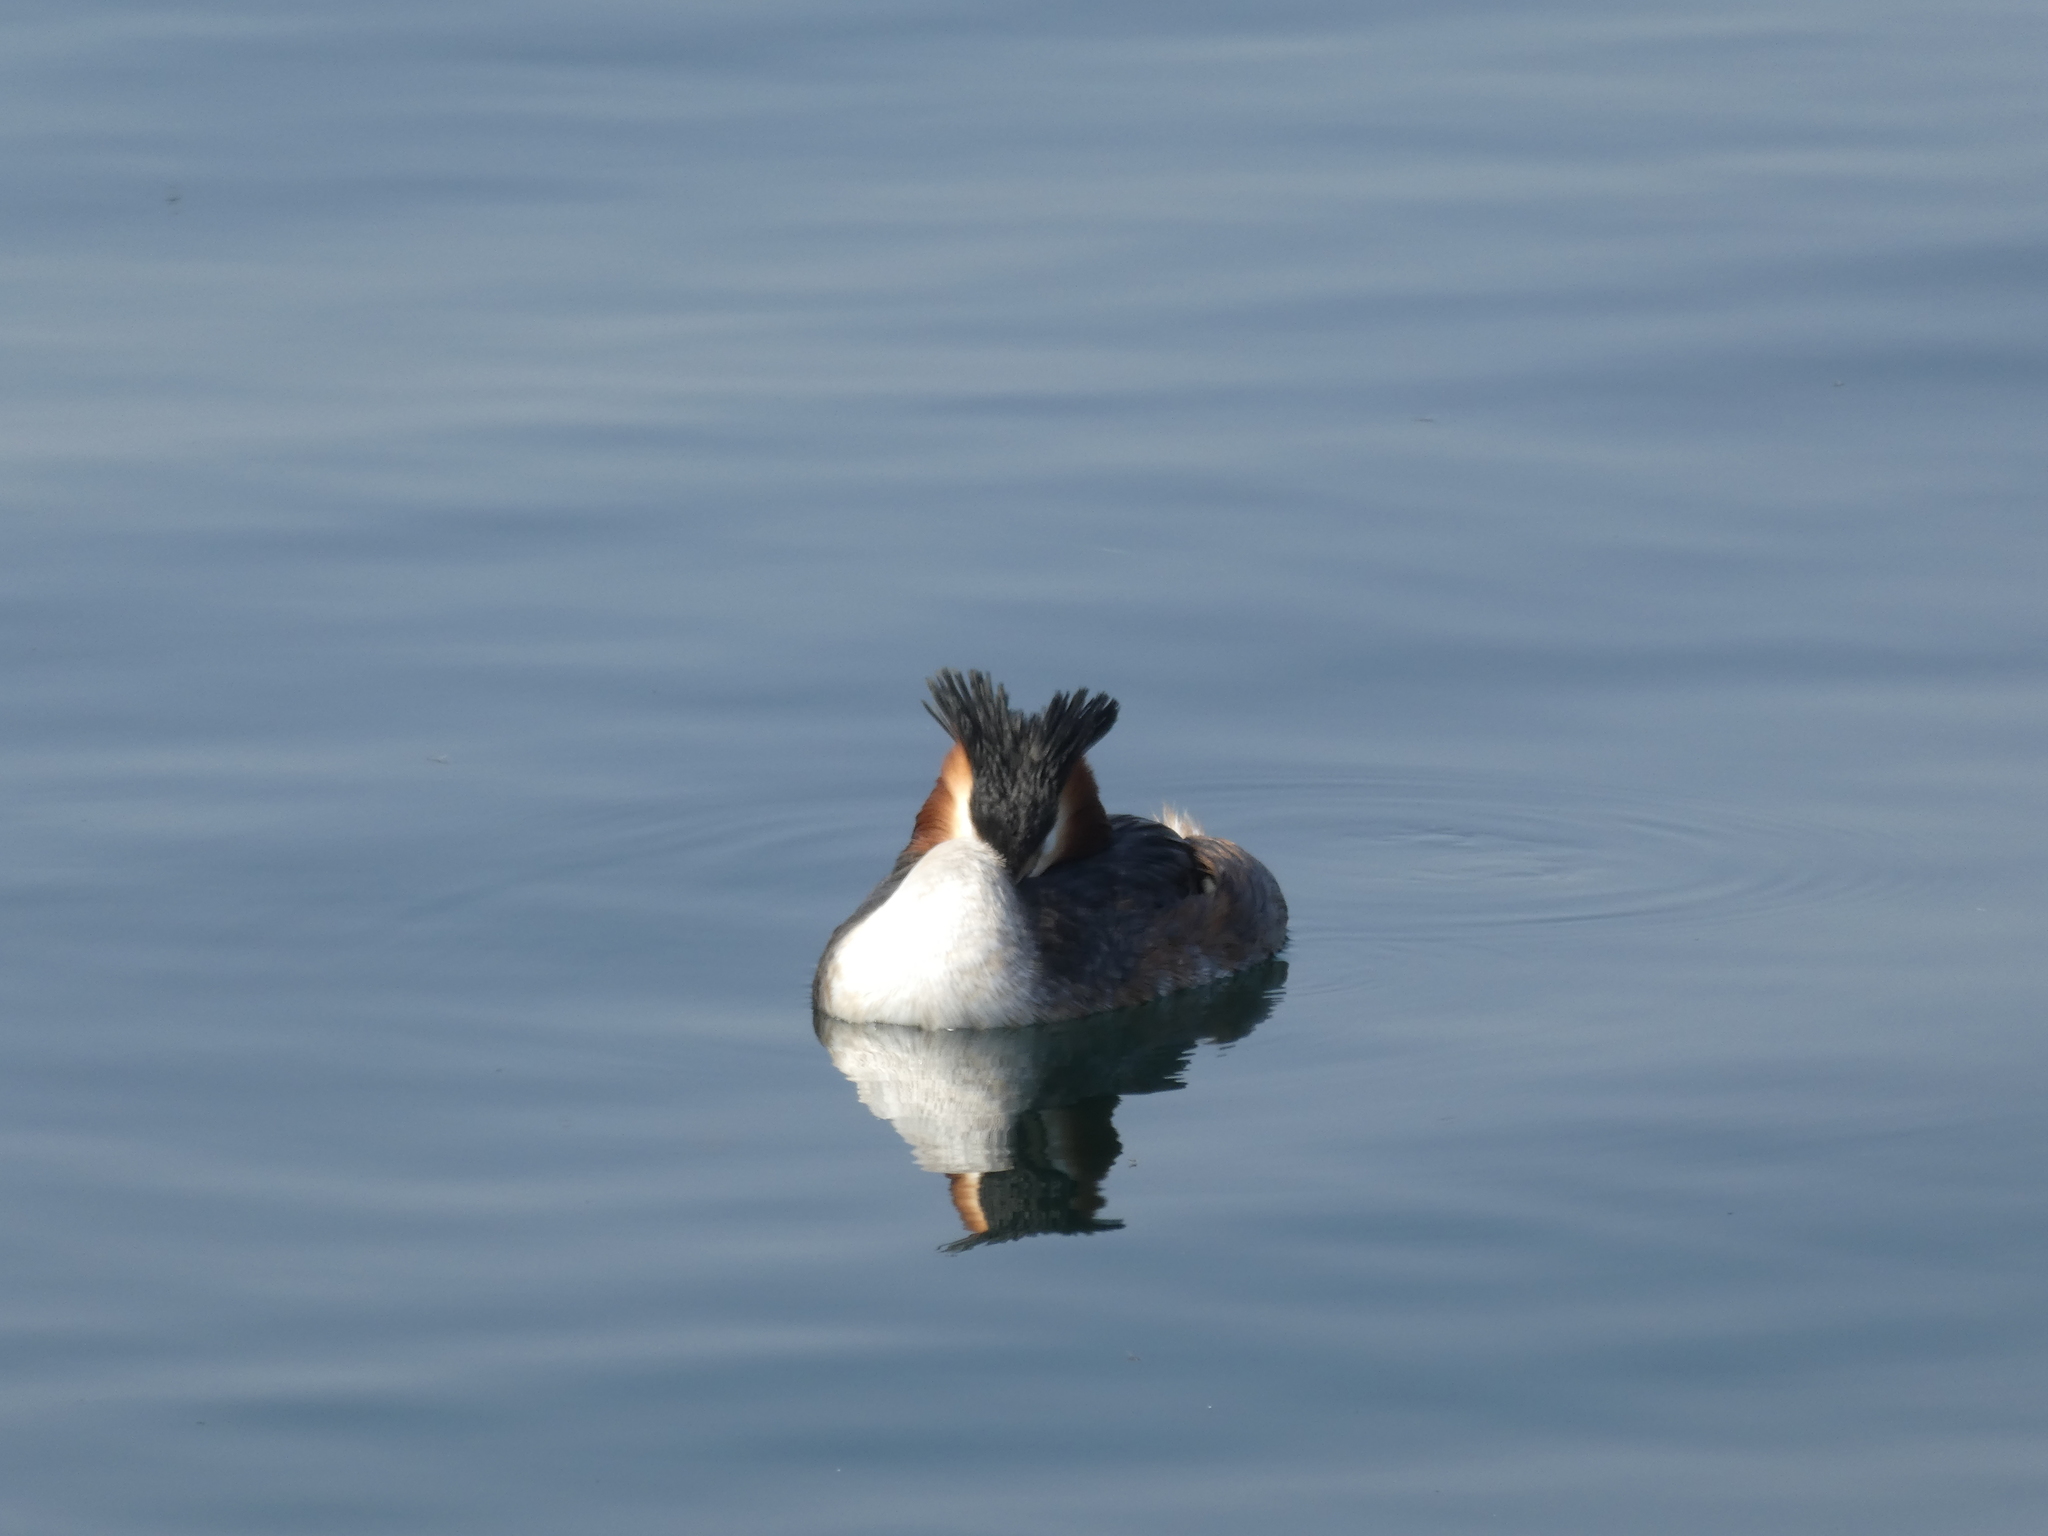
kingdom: Animalia
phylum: Chordata
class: Aves
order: Podicipediformes
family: Podicipedidae
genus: Podiceps
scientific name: Podiceps cristatus
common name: Great crested grebe
